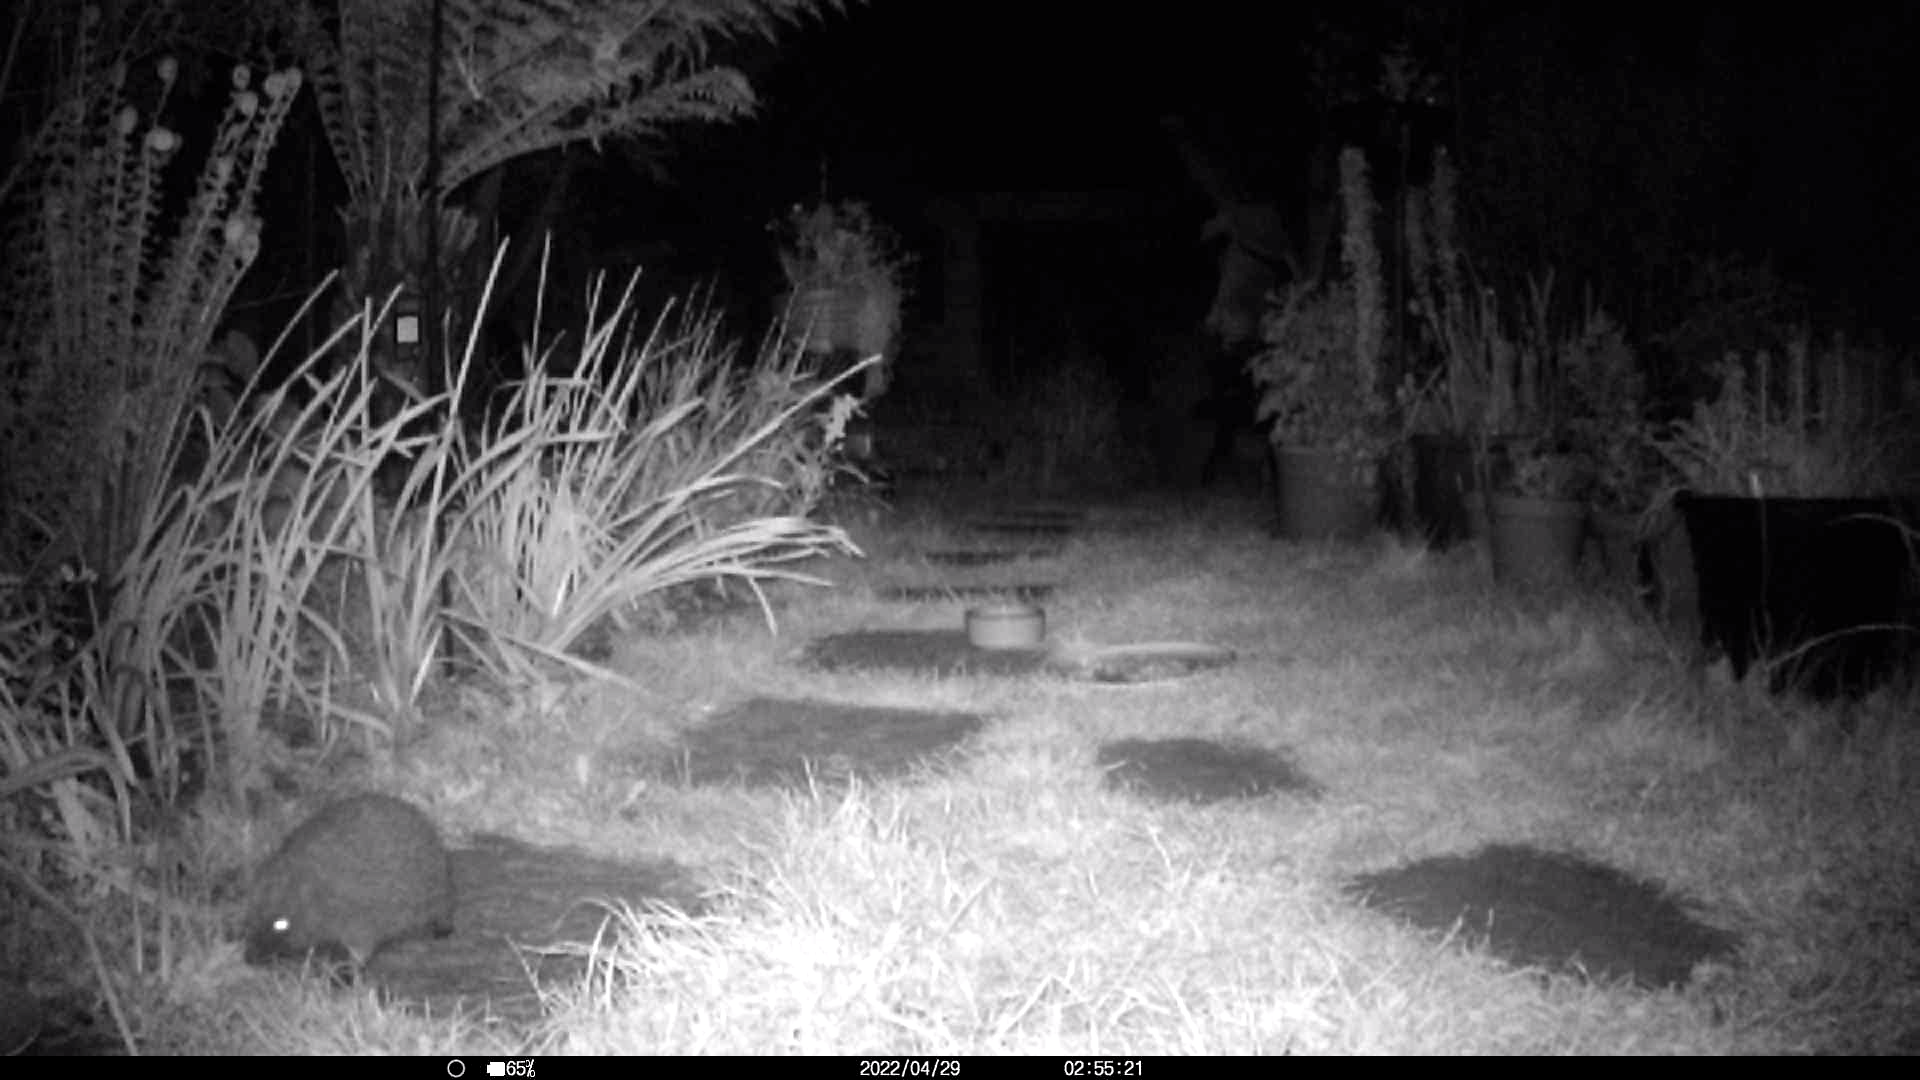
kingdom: Animalia
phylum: Chordata
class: Mammalia
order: Erinaceomorpha
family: Erinaceidae
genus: Erinaceus
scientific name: Erinaceus europaeus
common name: West european hedgehog
